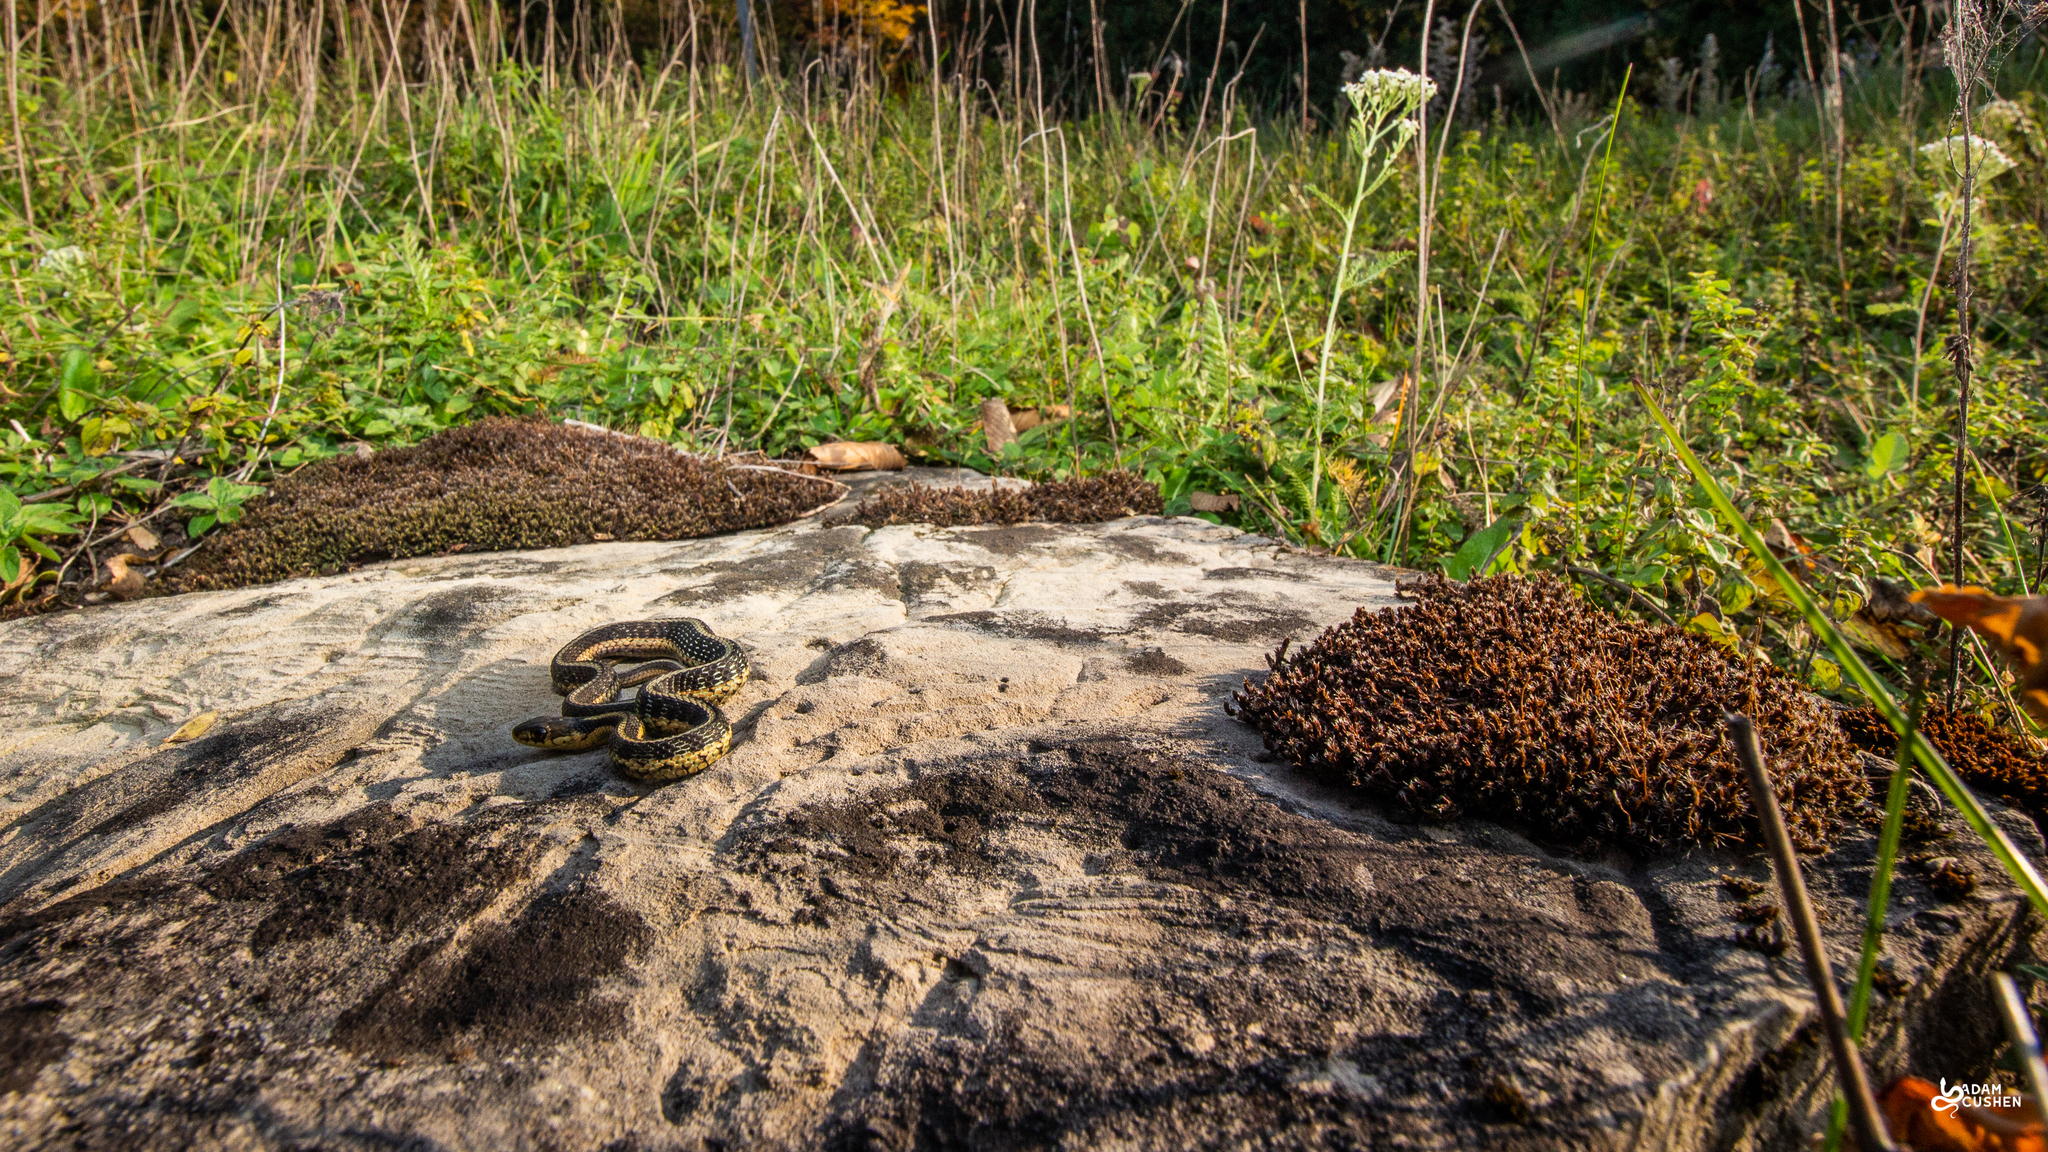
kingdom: Animalia
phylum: Chordata
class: Squamata
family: Colubridae
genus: Thamnophis
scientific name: Thamnophis sirtalis
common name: Common garter snake
